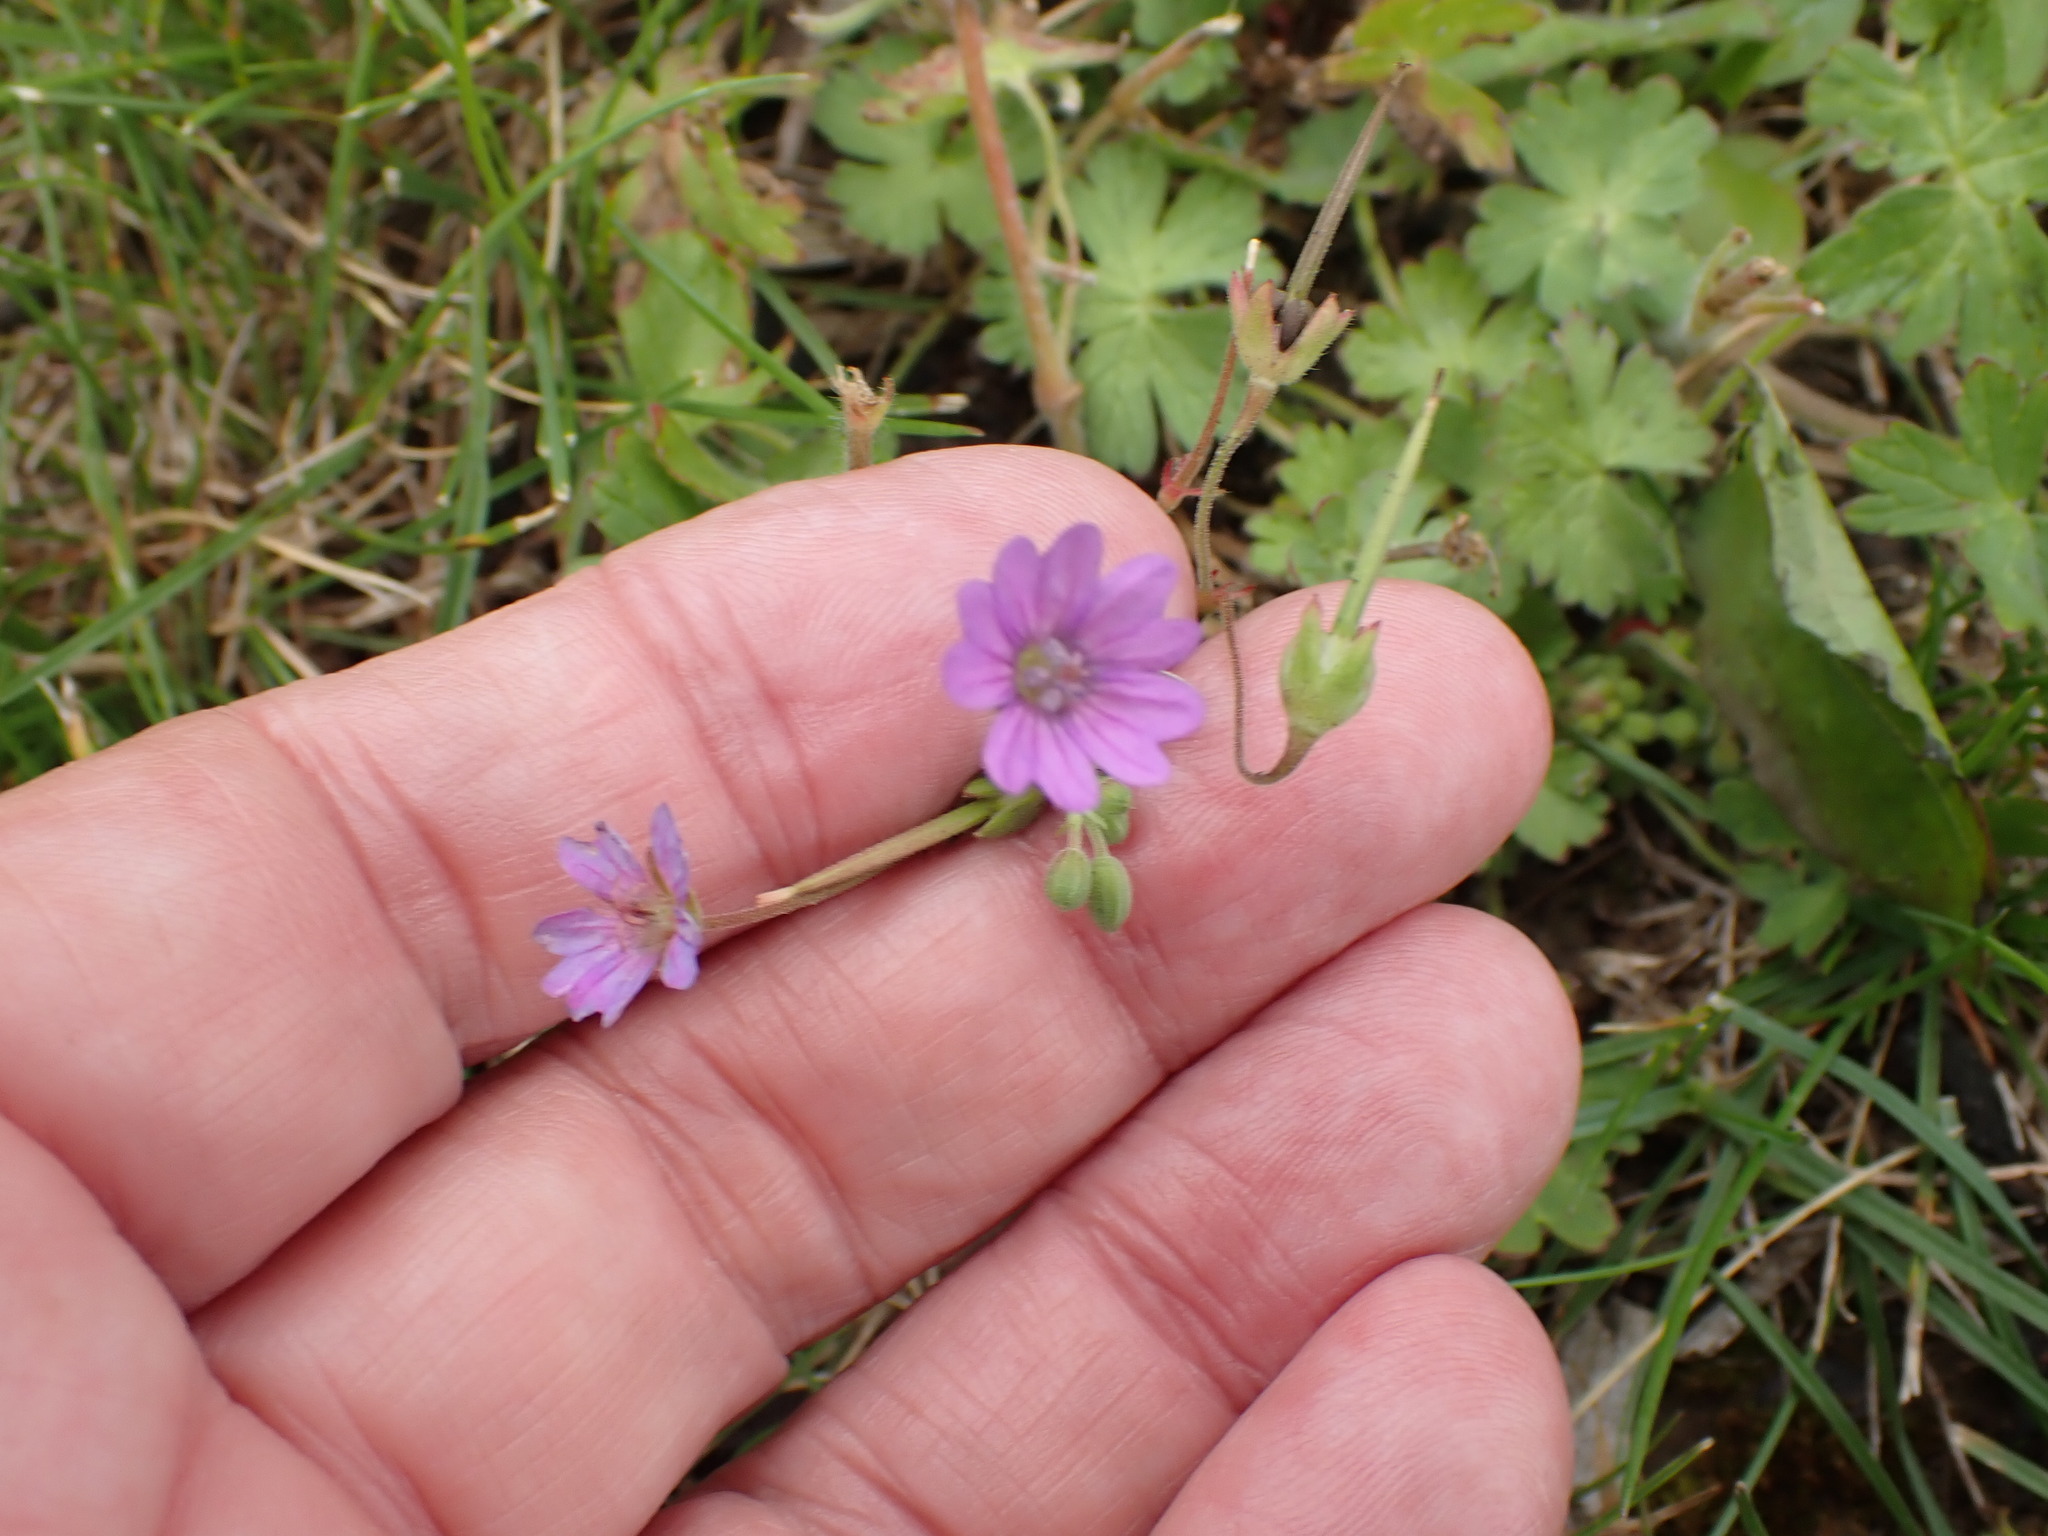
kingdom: Plantae
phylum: Tracheophyta
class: Magnoliopsida
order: Geraniales
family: Geraniaceae
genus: Geranium
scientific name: Geranium pyrenaicum
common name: Hedgerow crane's-bill
